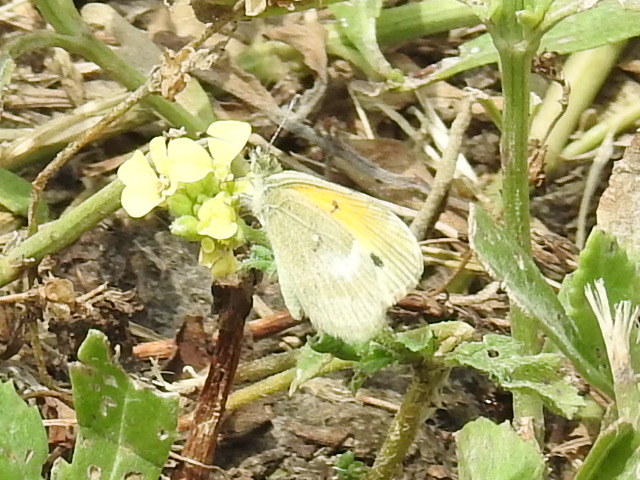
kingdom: Animalia
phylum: Arthropoda
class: Insecta
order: Lepidoptera
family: Pieridae
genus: Nathalis
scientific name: Nathalis iole
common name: Dainty sulphur
